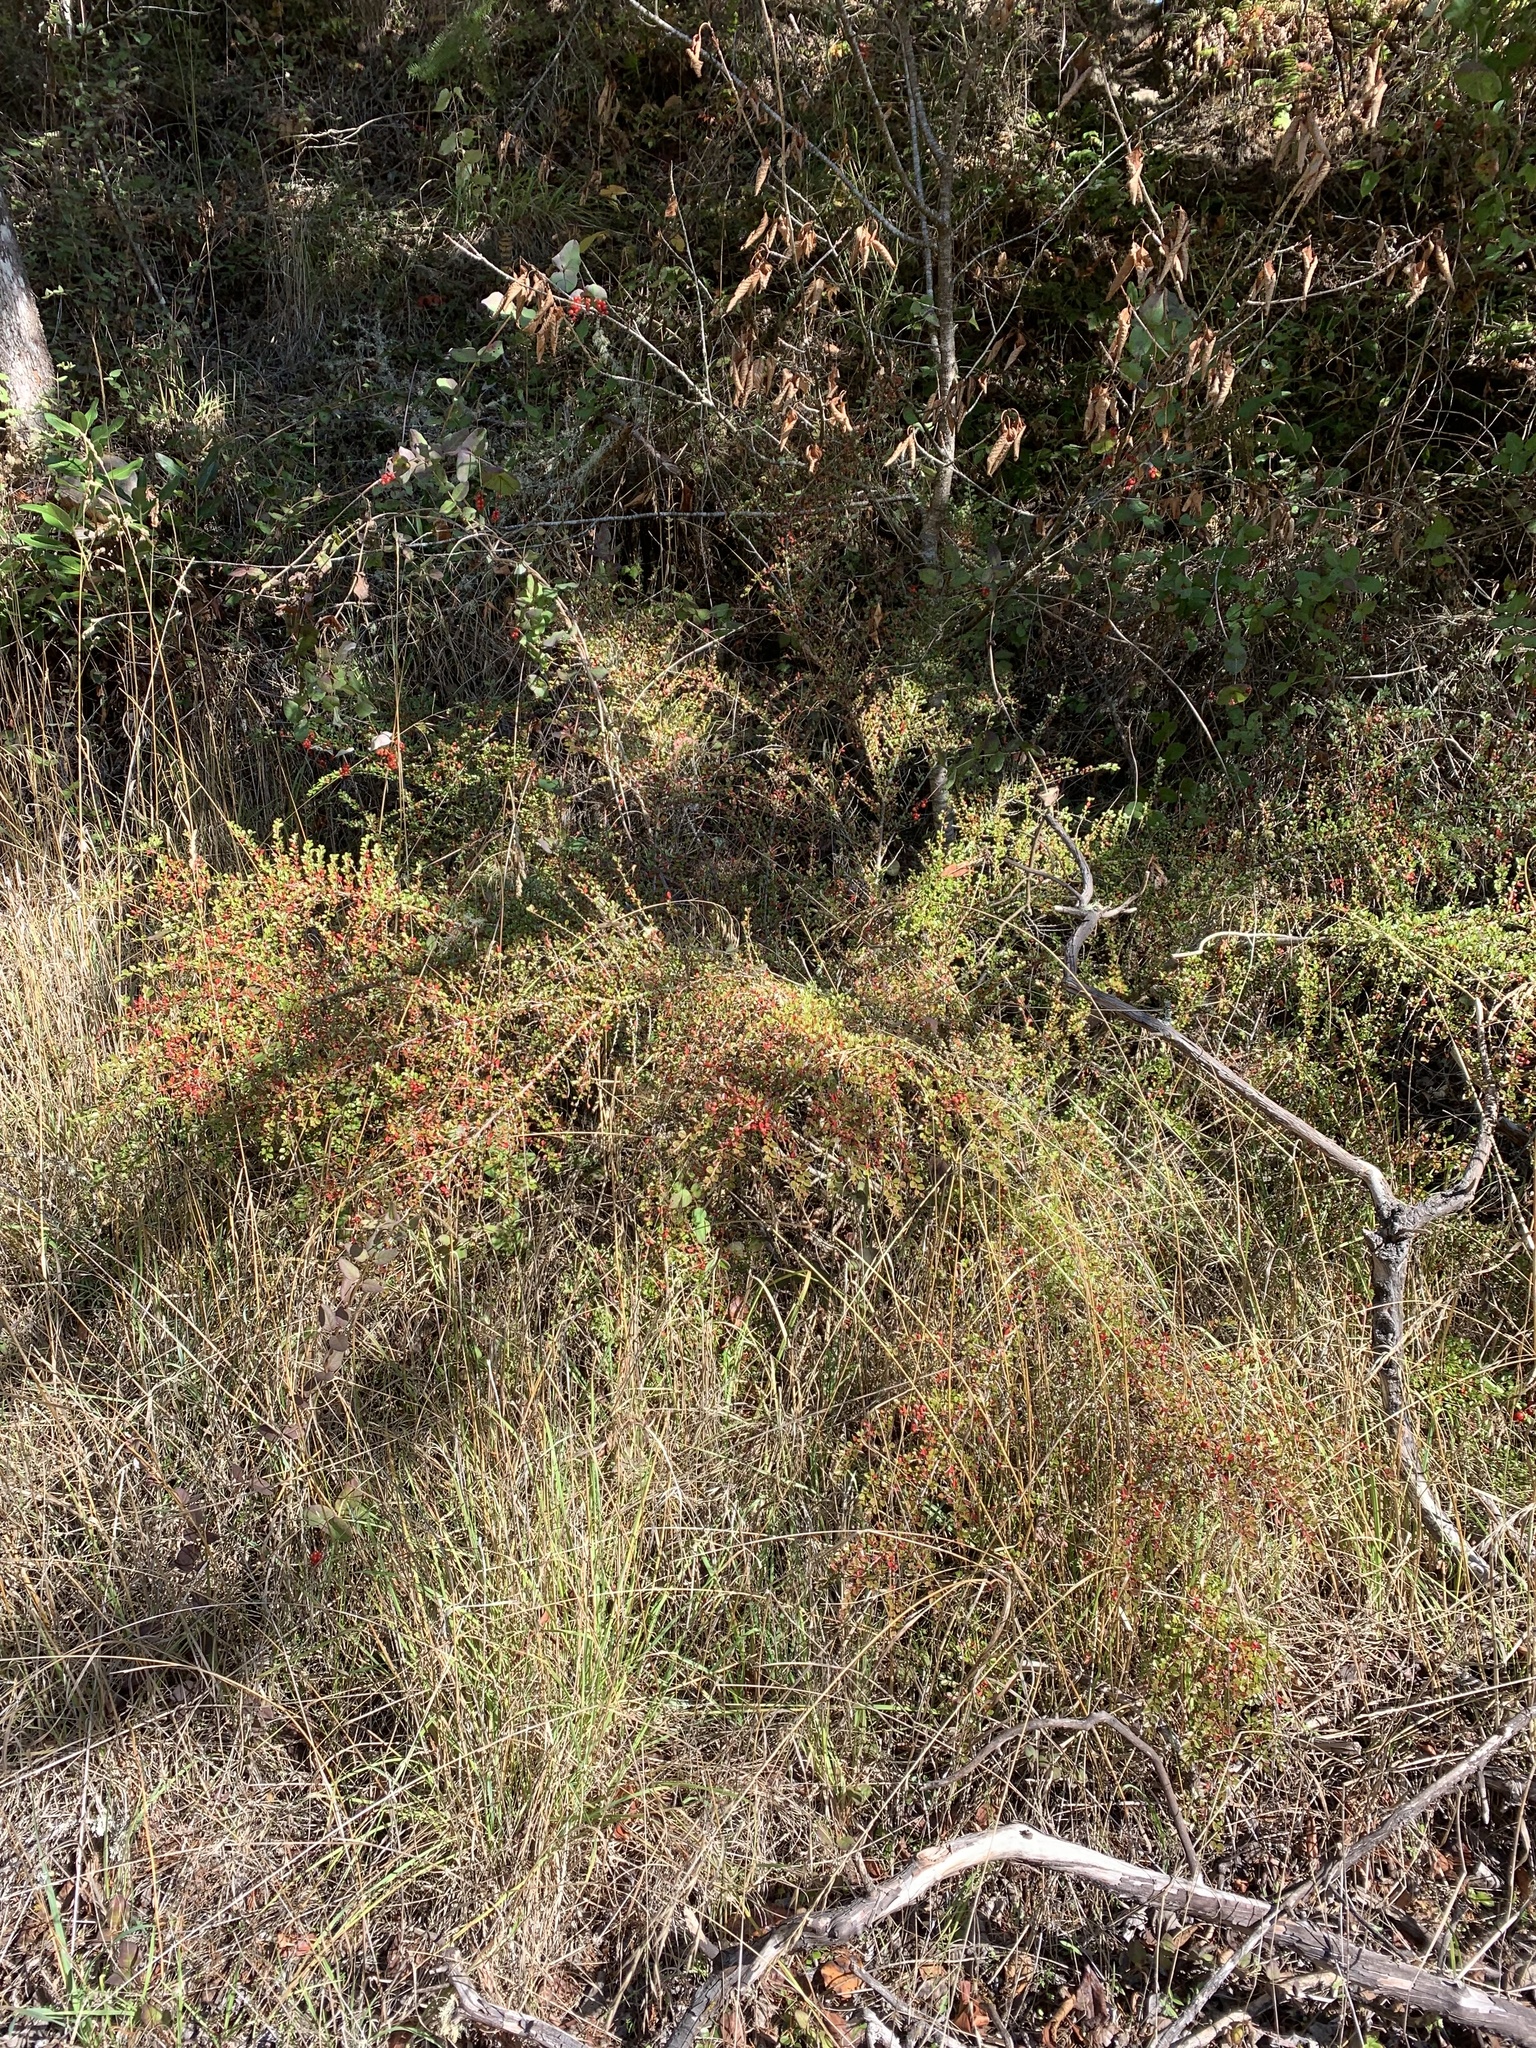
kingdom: Plantae
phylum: Tracheophyta
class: Magnoliopsida
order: Rosales
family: Rosaceae
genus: Cotoneaster
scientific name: Cotoneaster horizontalis
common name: Wall cotoneaster
